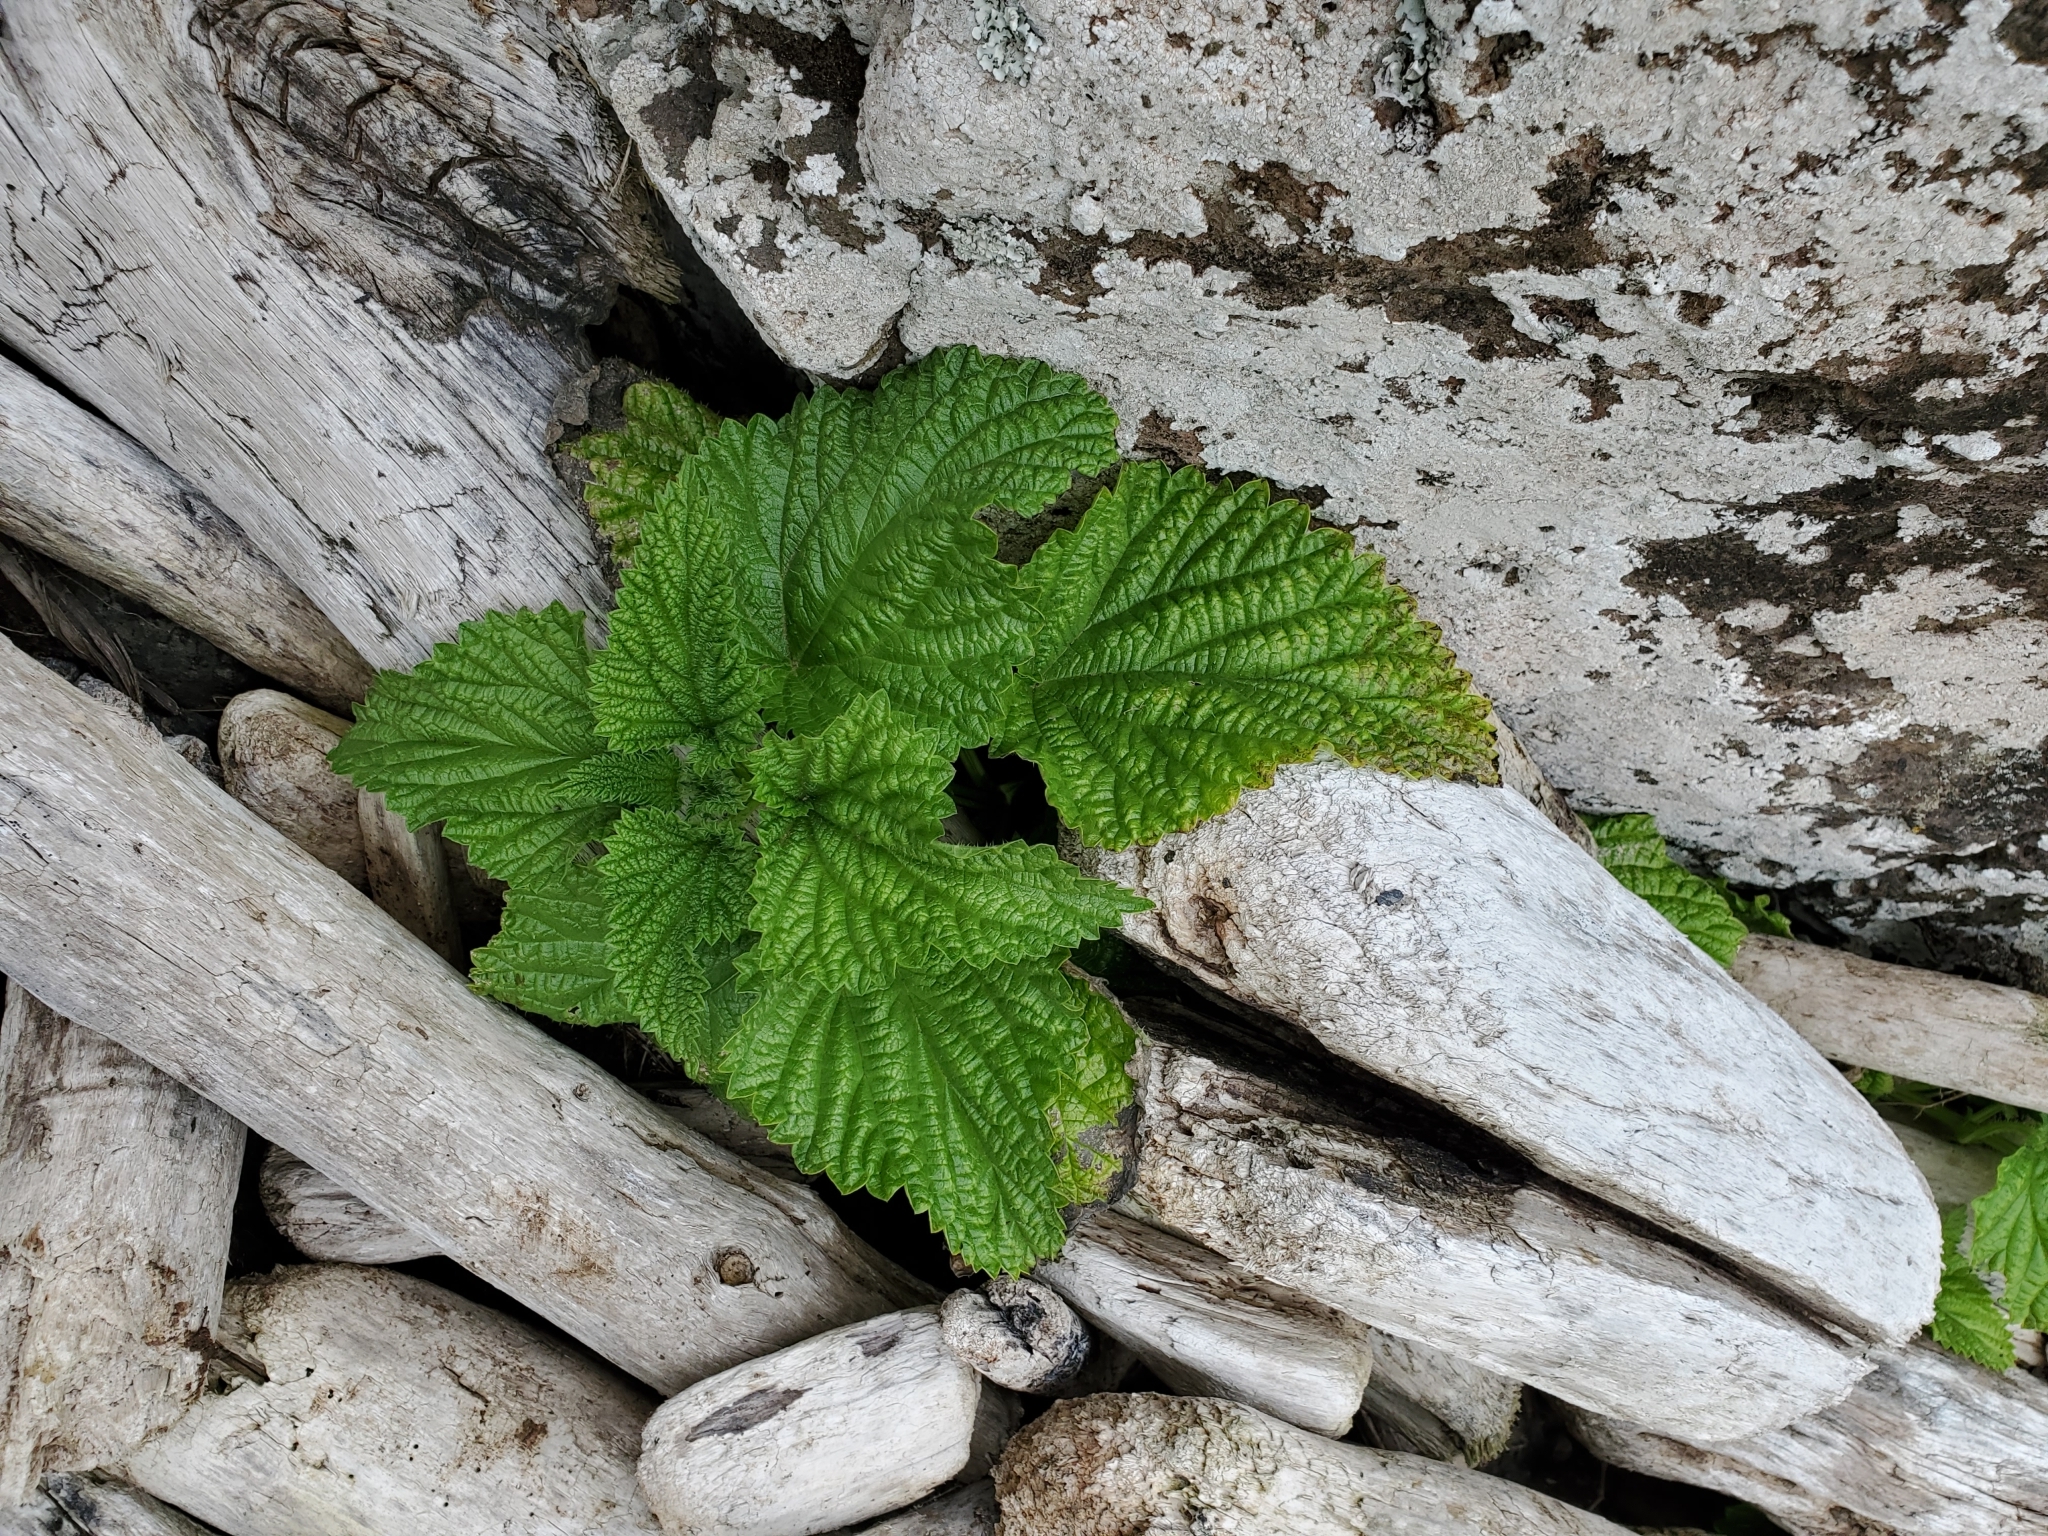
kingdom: Plantae
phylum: Tracheophyta
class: Magnoliopsida
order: Rosales
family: Urticaceae
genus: Urtica
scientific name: Urtica australis
